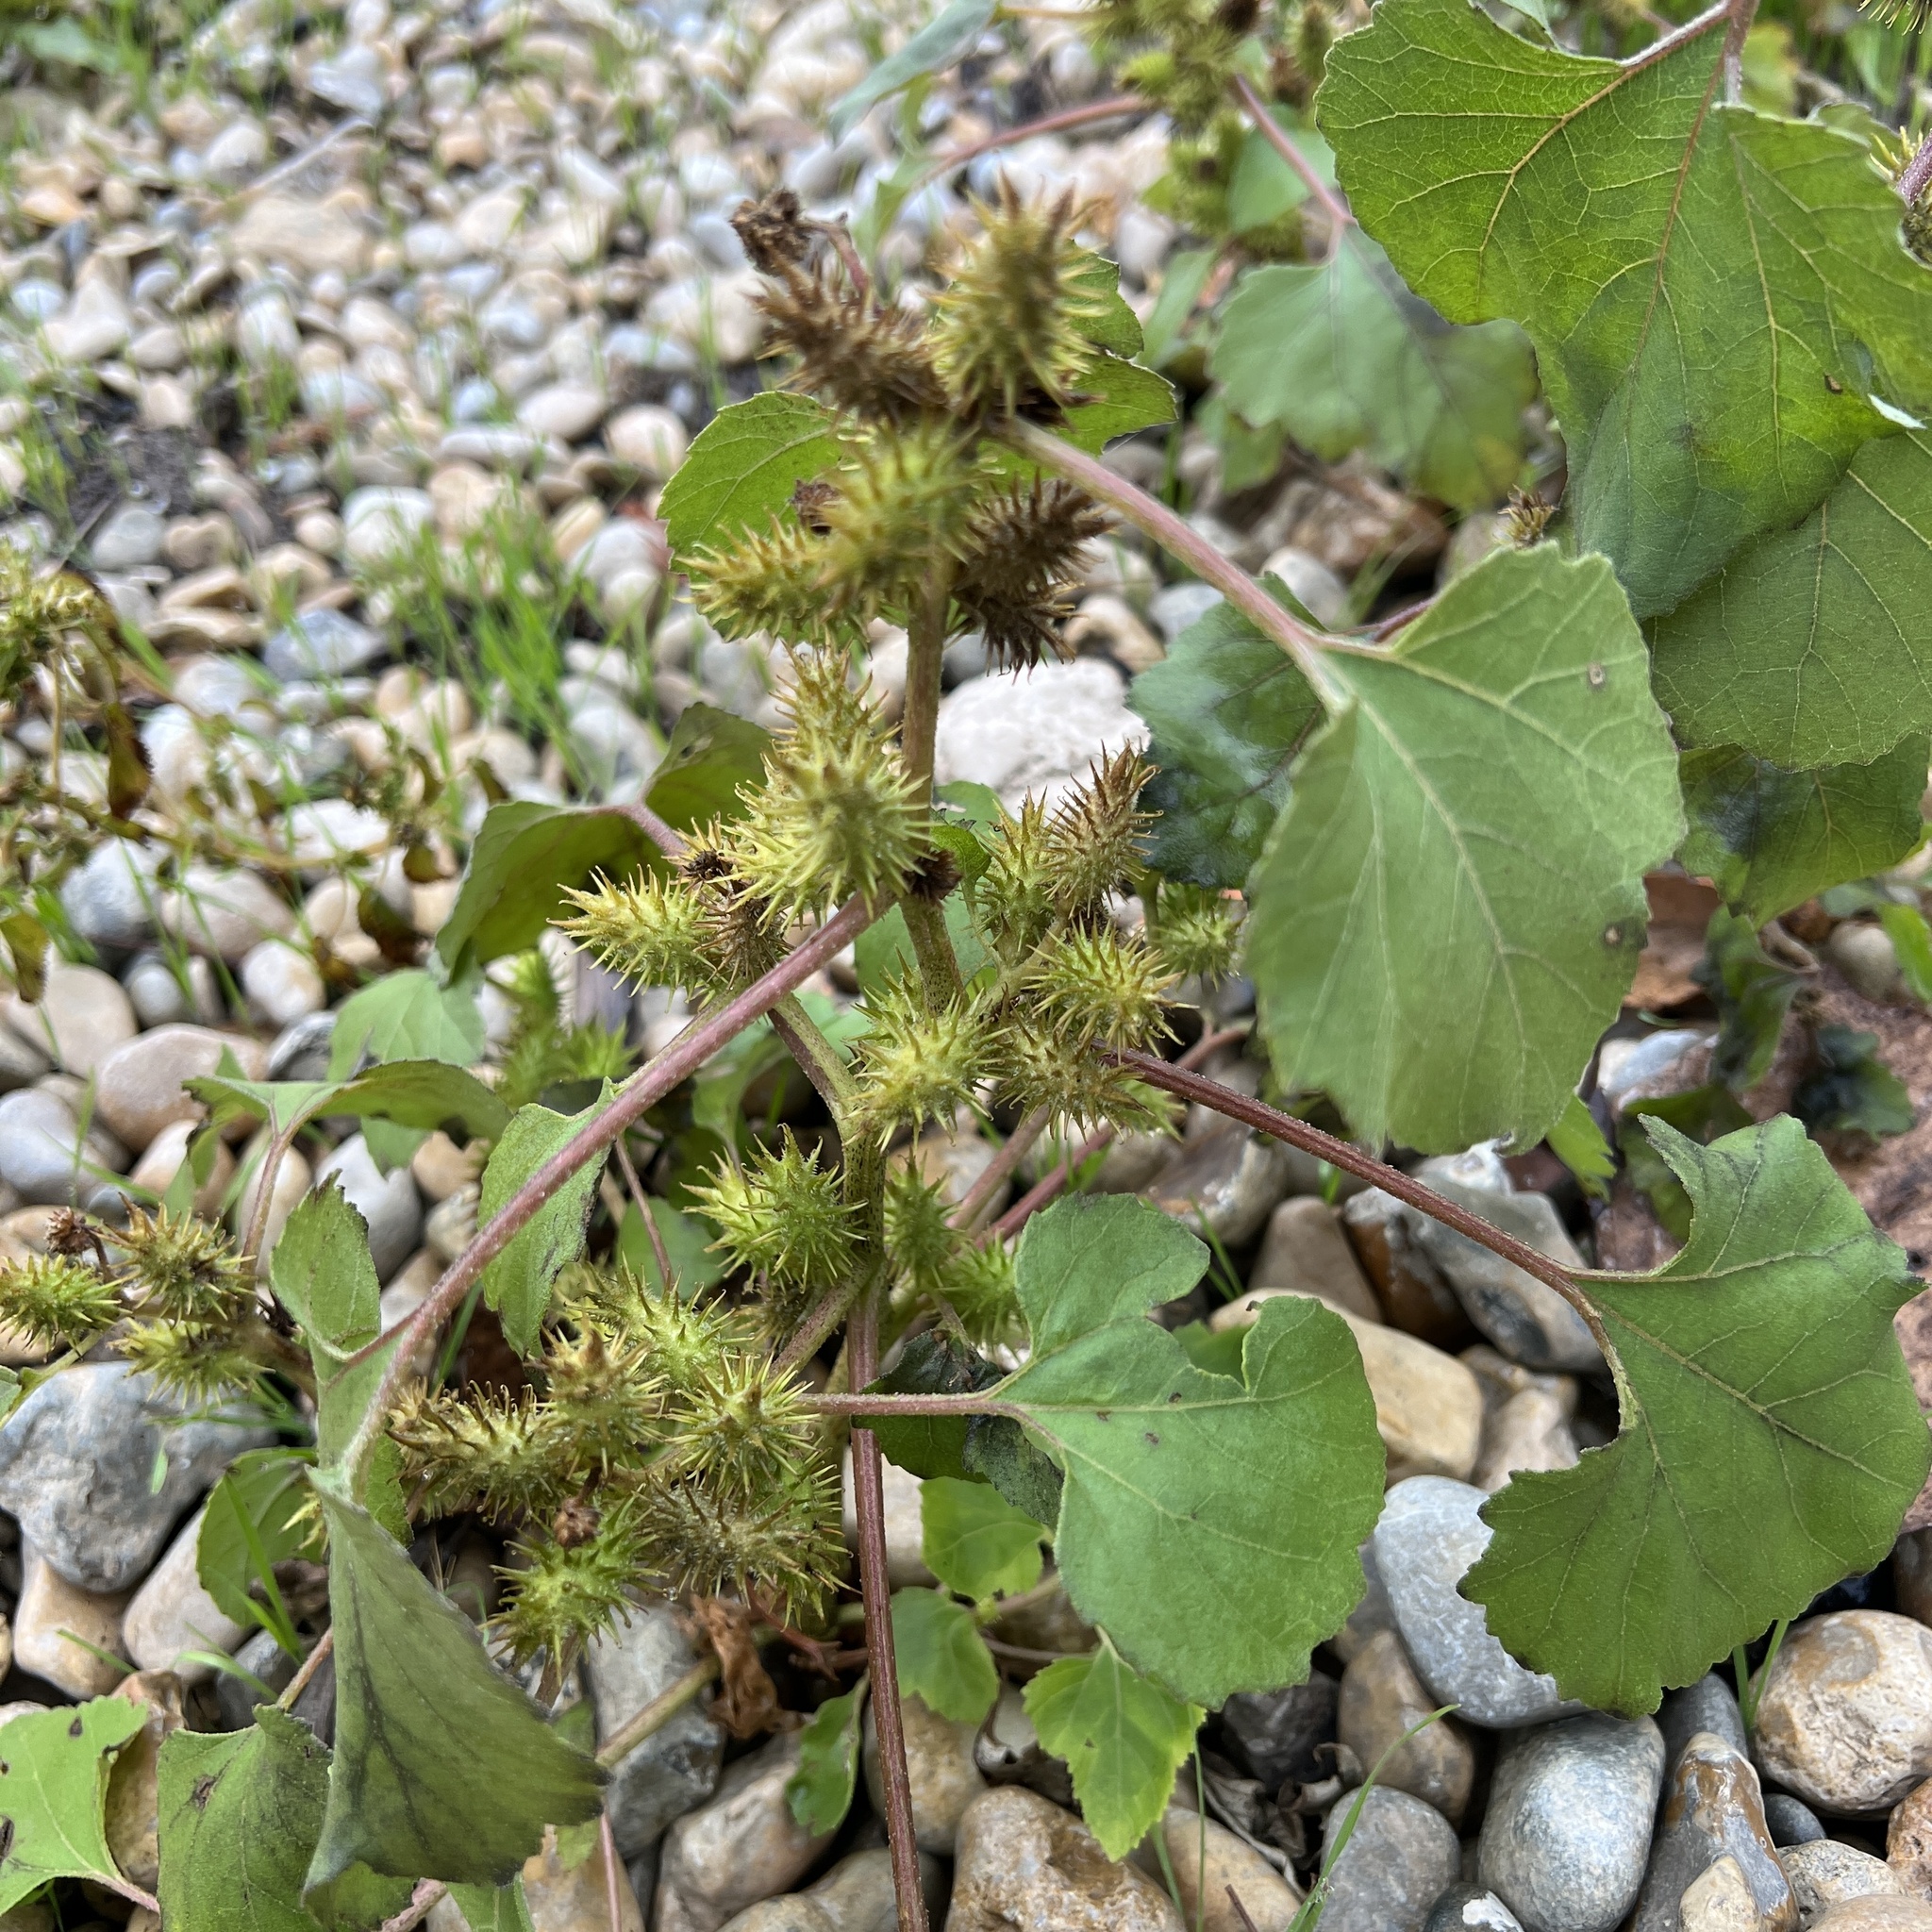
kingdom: Plantae
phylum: Tracheophyta
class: Magnoliopsida
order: Asterales
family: Asteraceae
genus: Xanthium
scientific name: Xanthium strumarium
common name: Rough cocklebur
